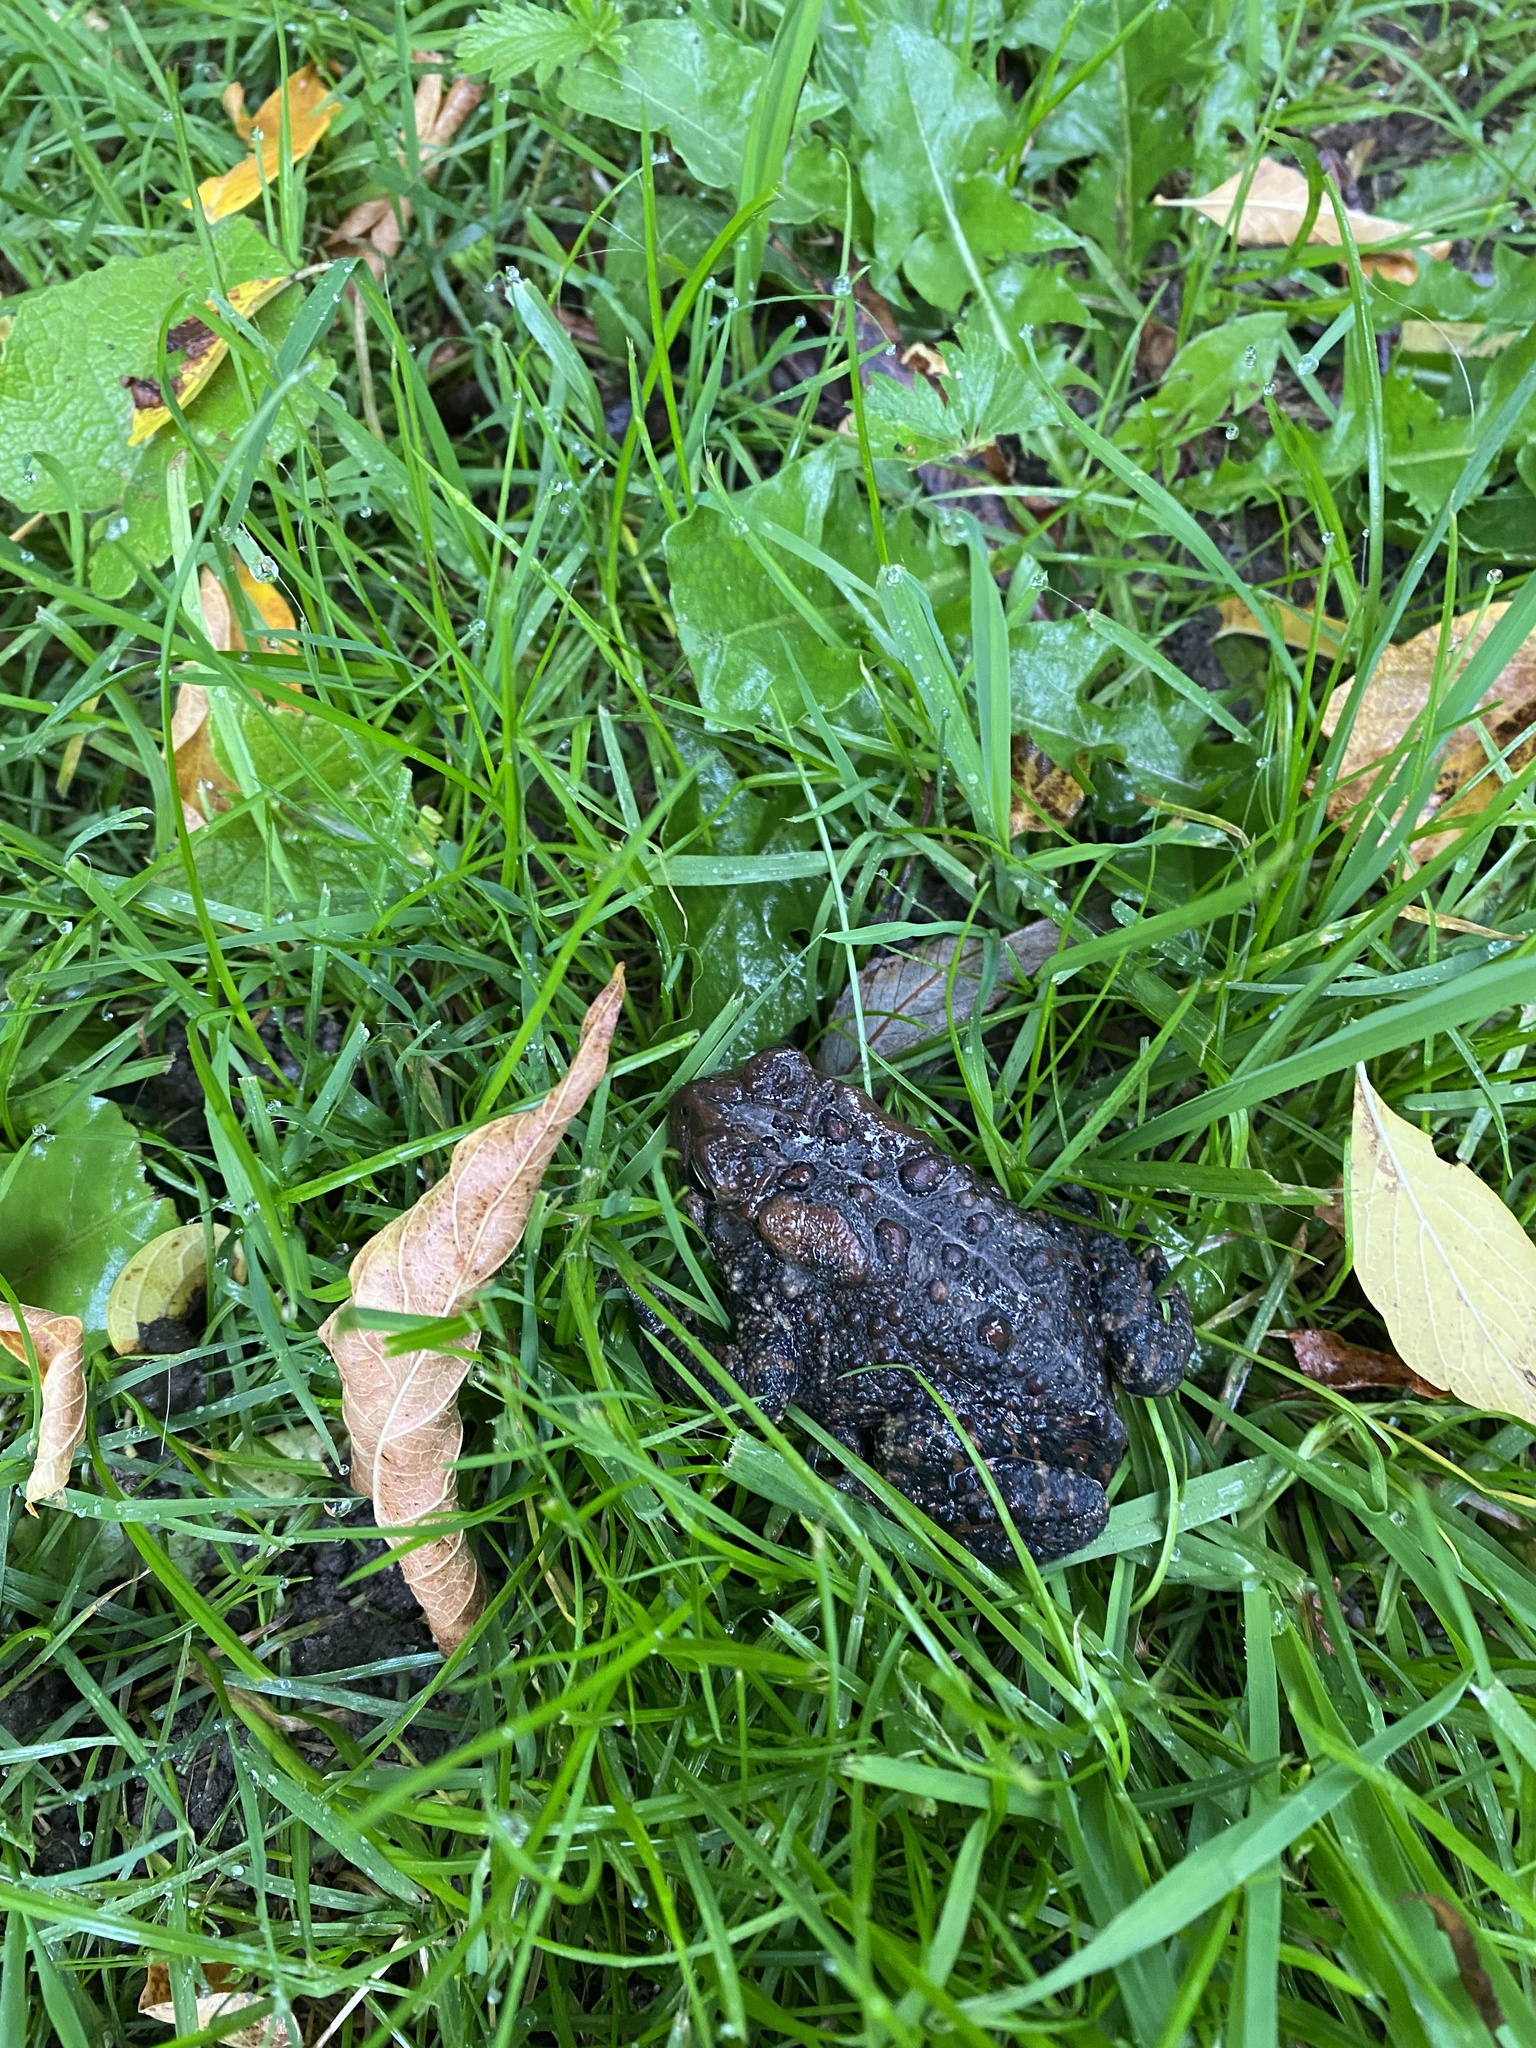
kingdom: Animalia
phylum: Chordata
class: Amphibia
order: Anura
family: Bufonidae
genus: Anaxyrus
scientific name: Anaxyrus americanus
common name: American toad
